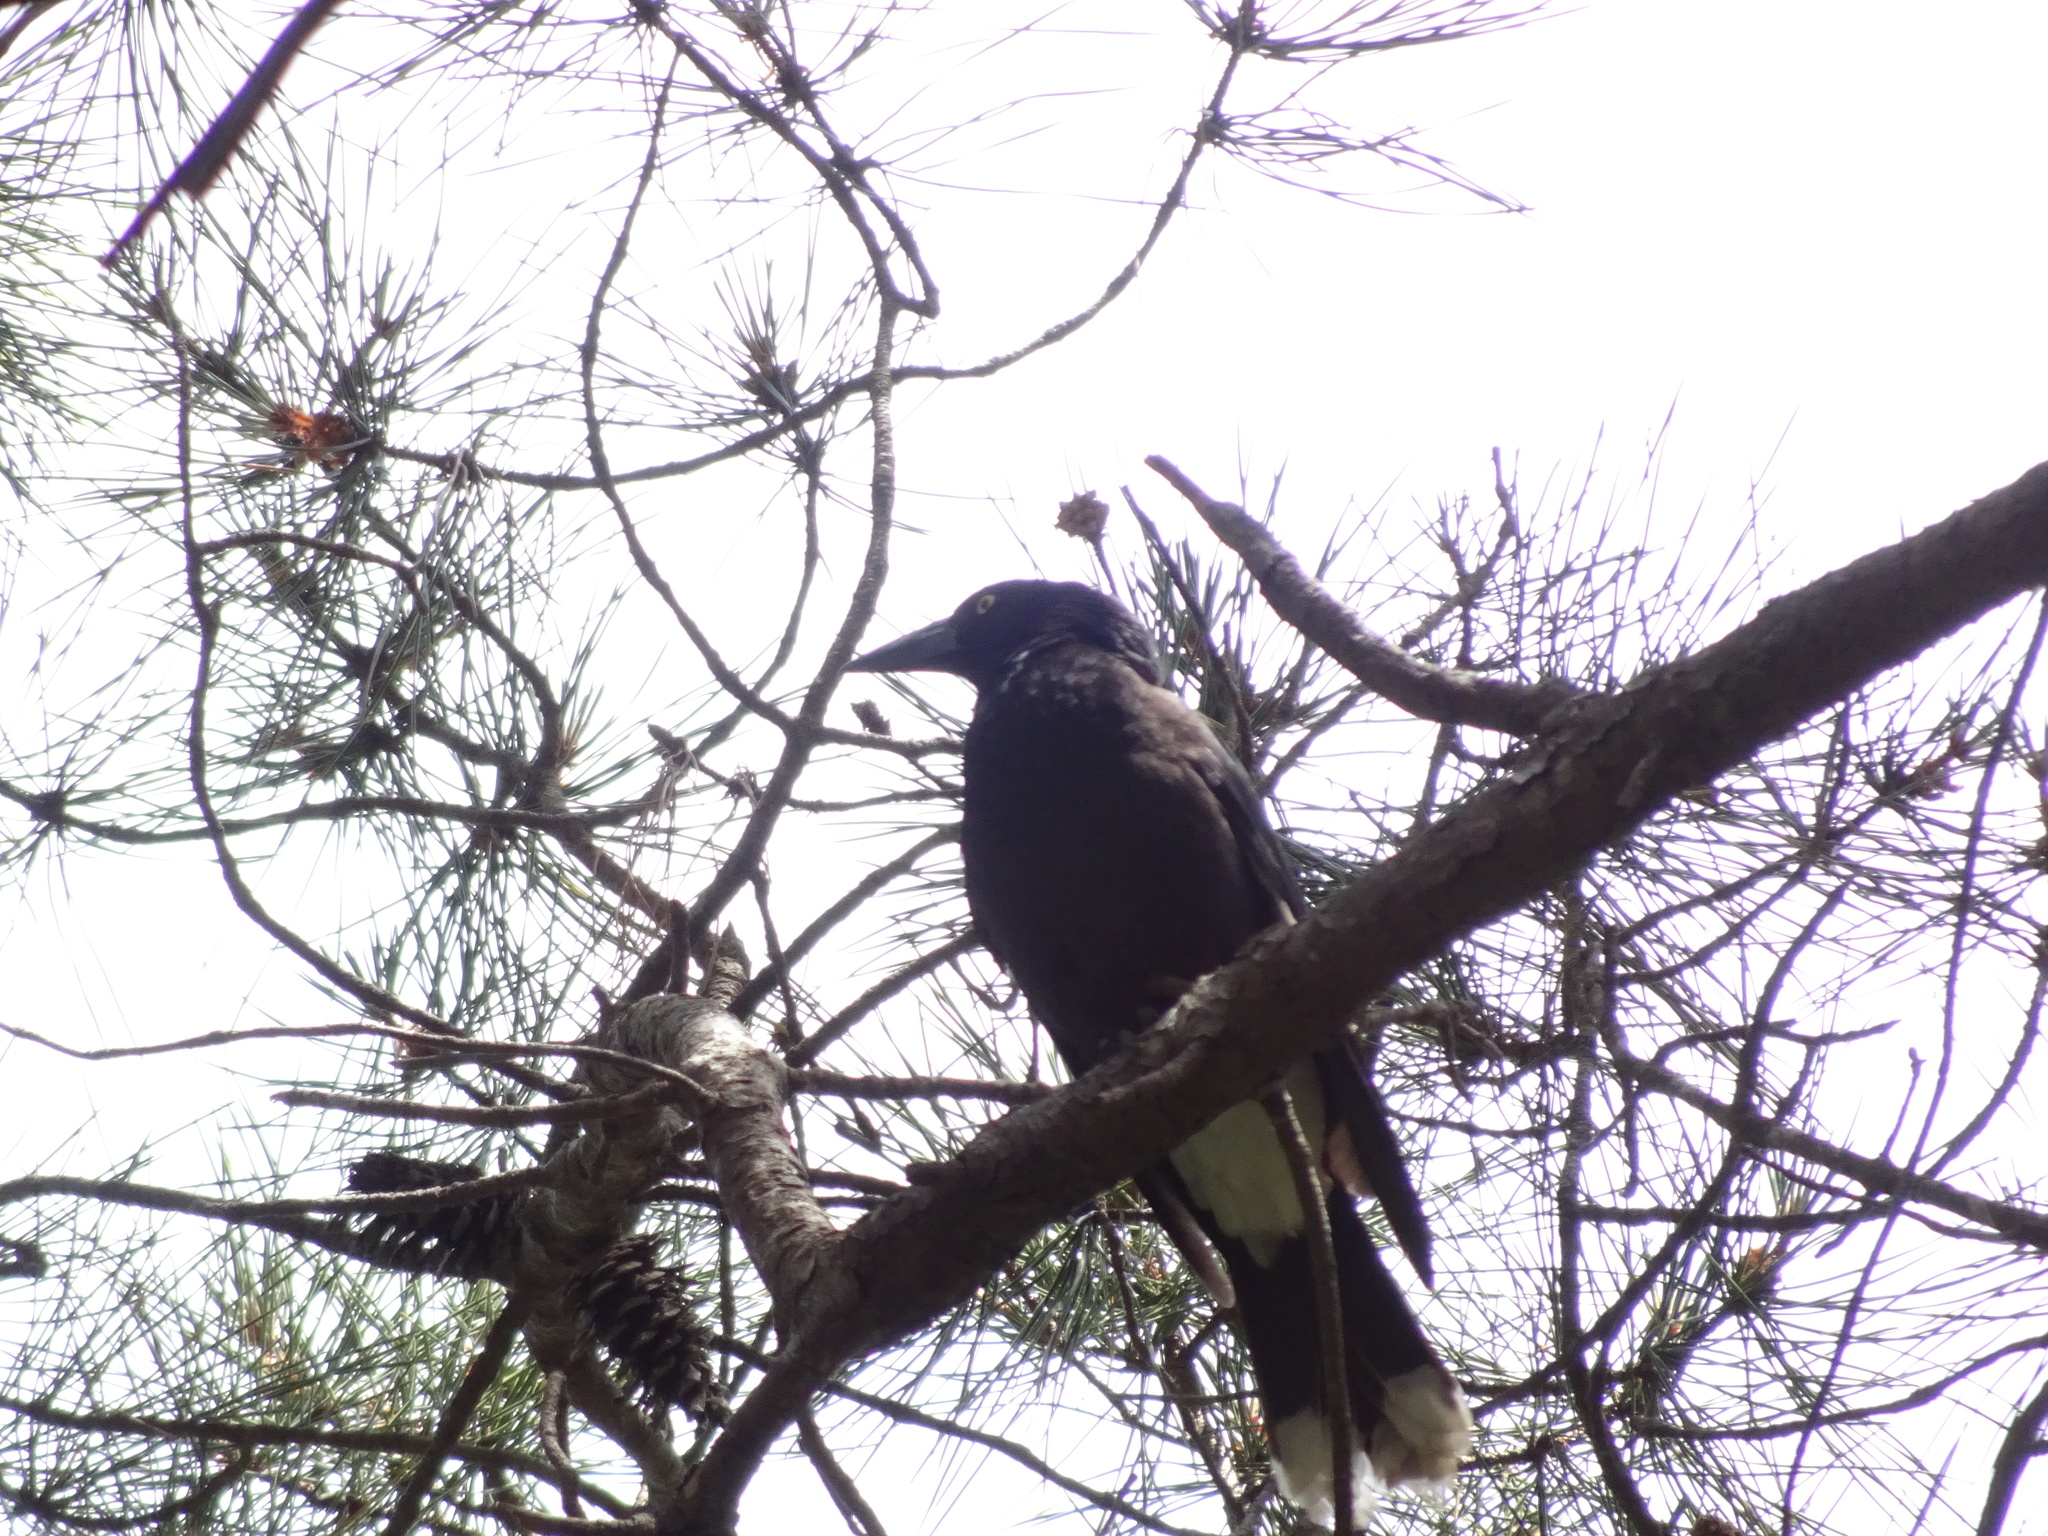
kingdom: Animalia
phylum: Chordata
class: Aves
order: Passeriformes
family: Cracticidae
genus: Strepera
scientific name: Strepera graculina
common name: Pied currawong
